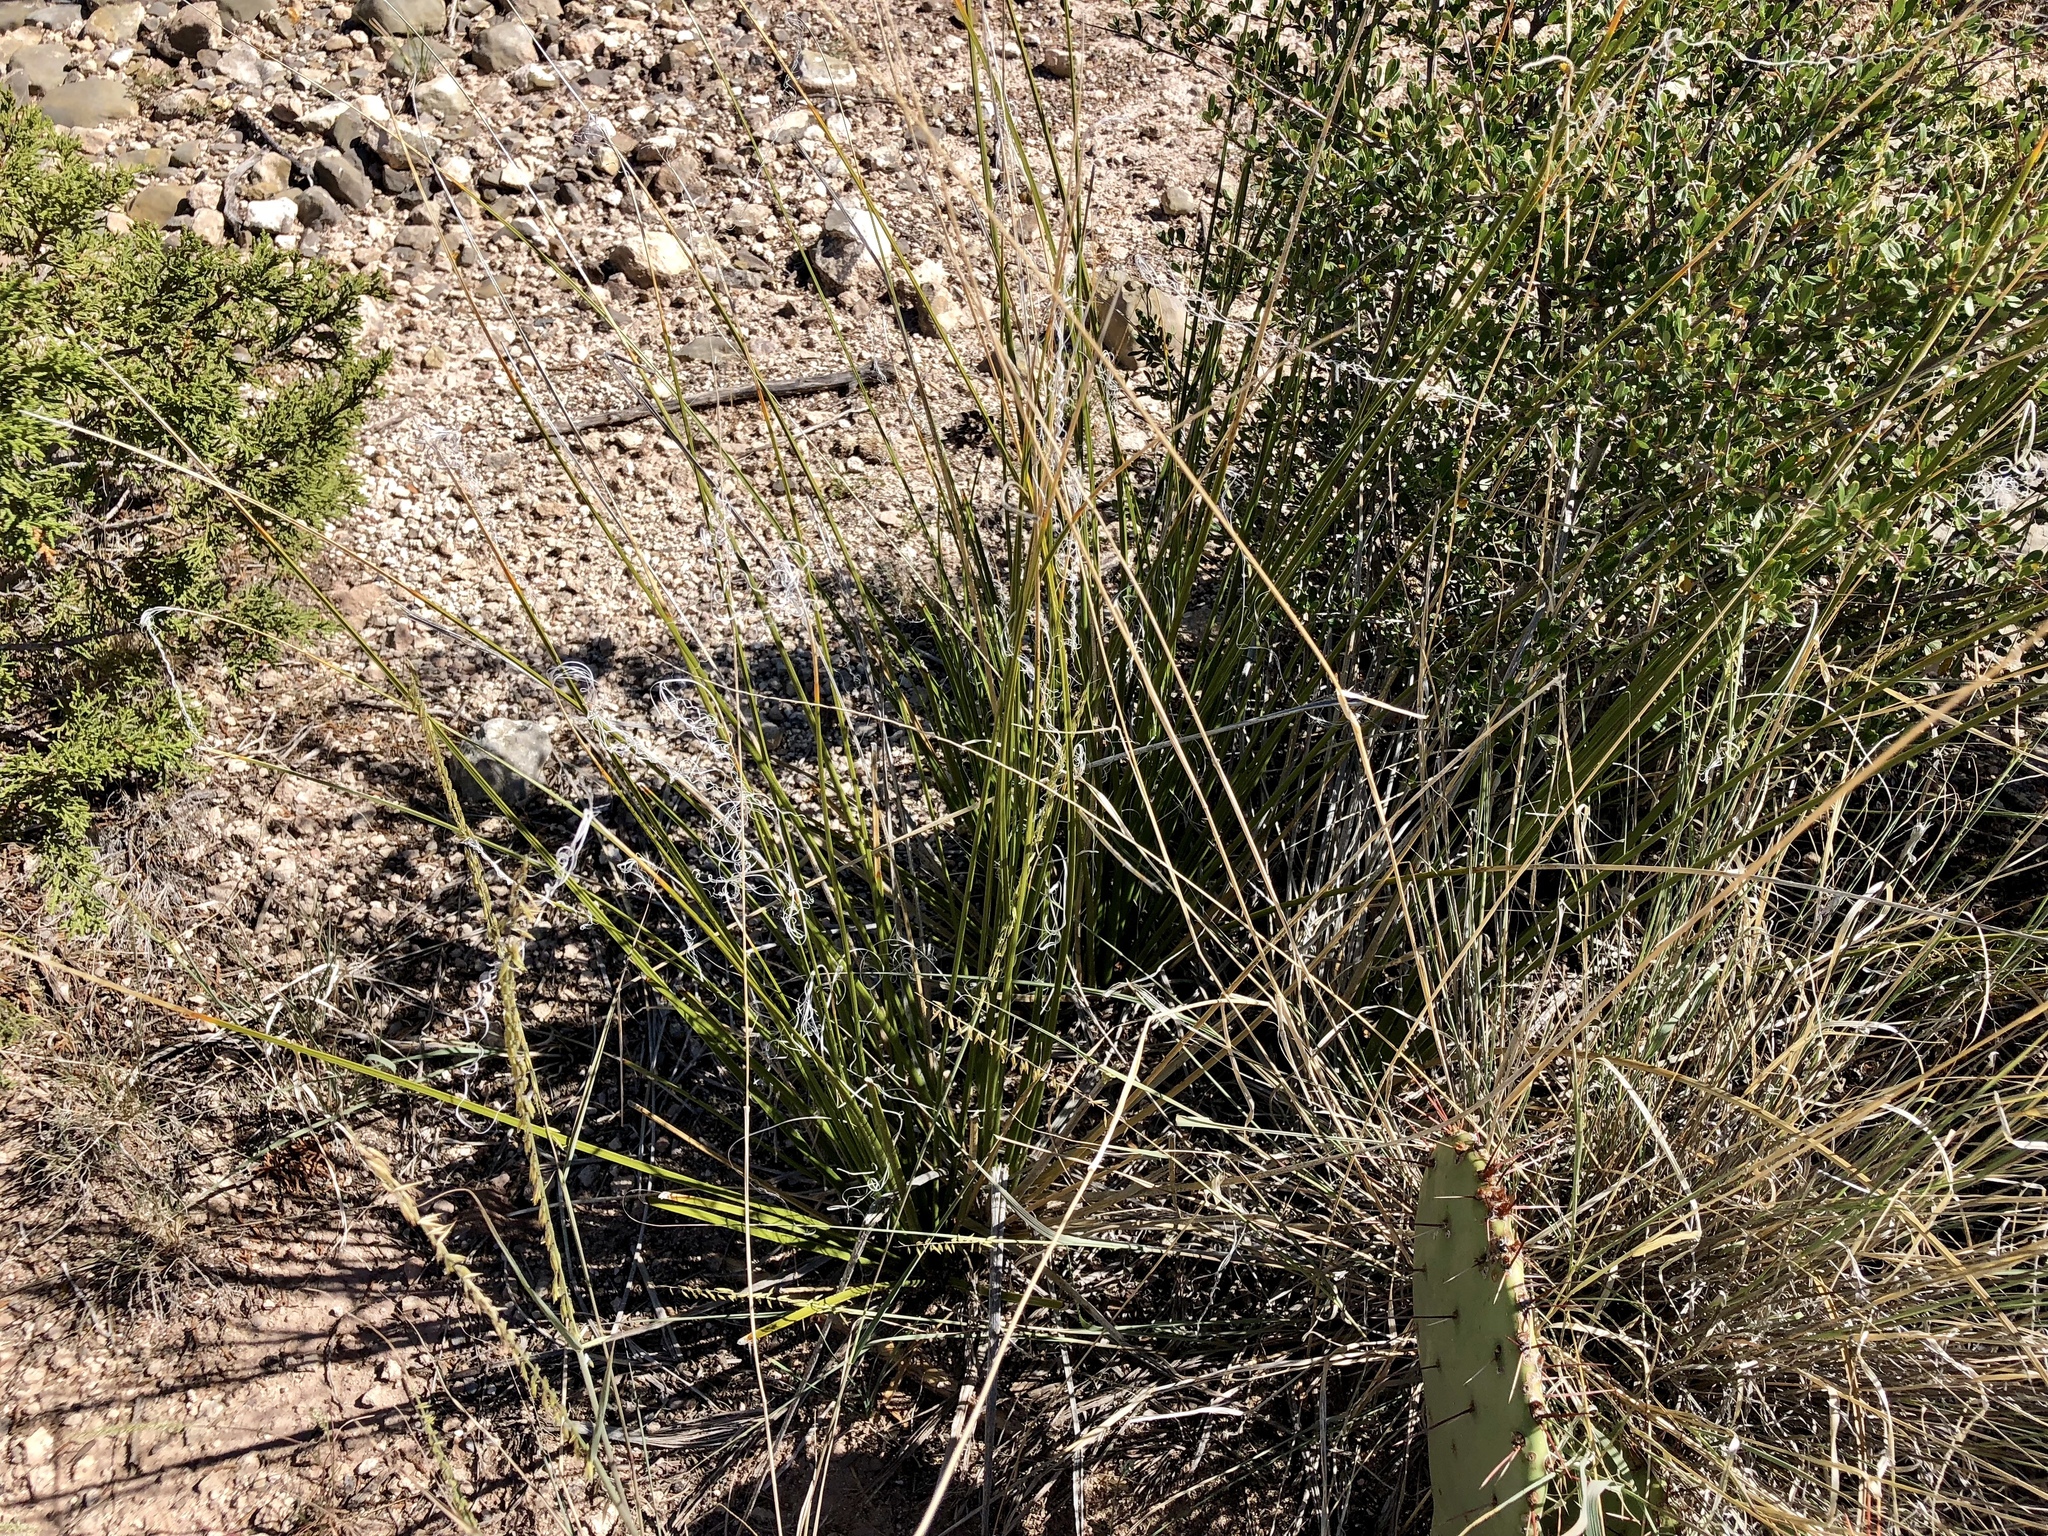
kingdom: Plantae
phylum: Tracheophyta
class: Liliopsida
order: Asparagales
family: Asparagaceae
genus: Nolina
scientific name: Nolina microcarpa
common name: Bear-grass
